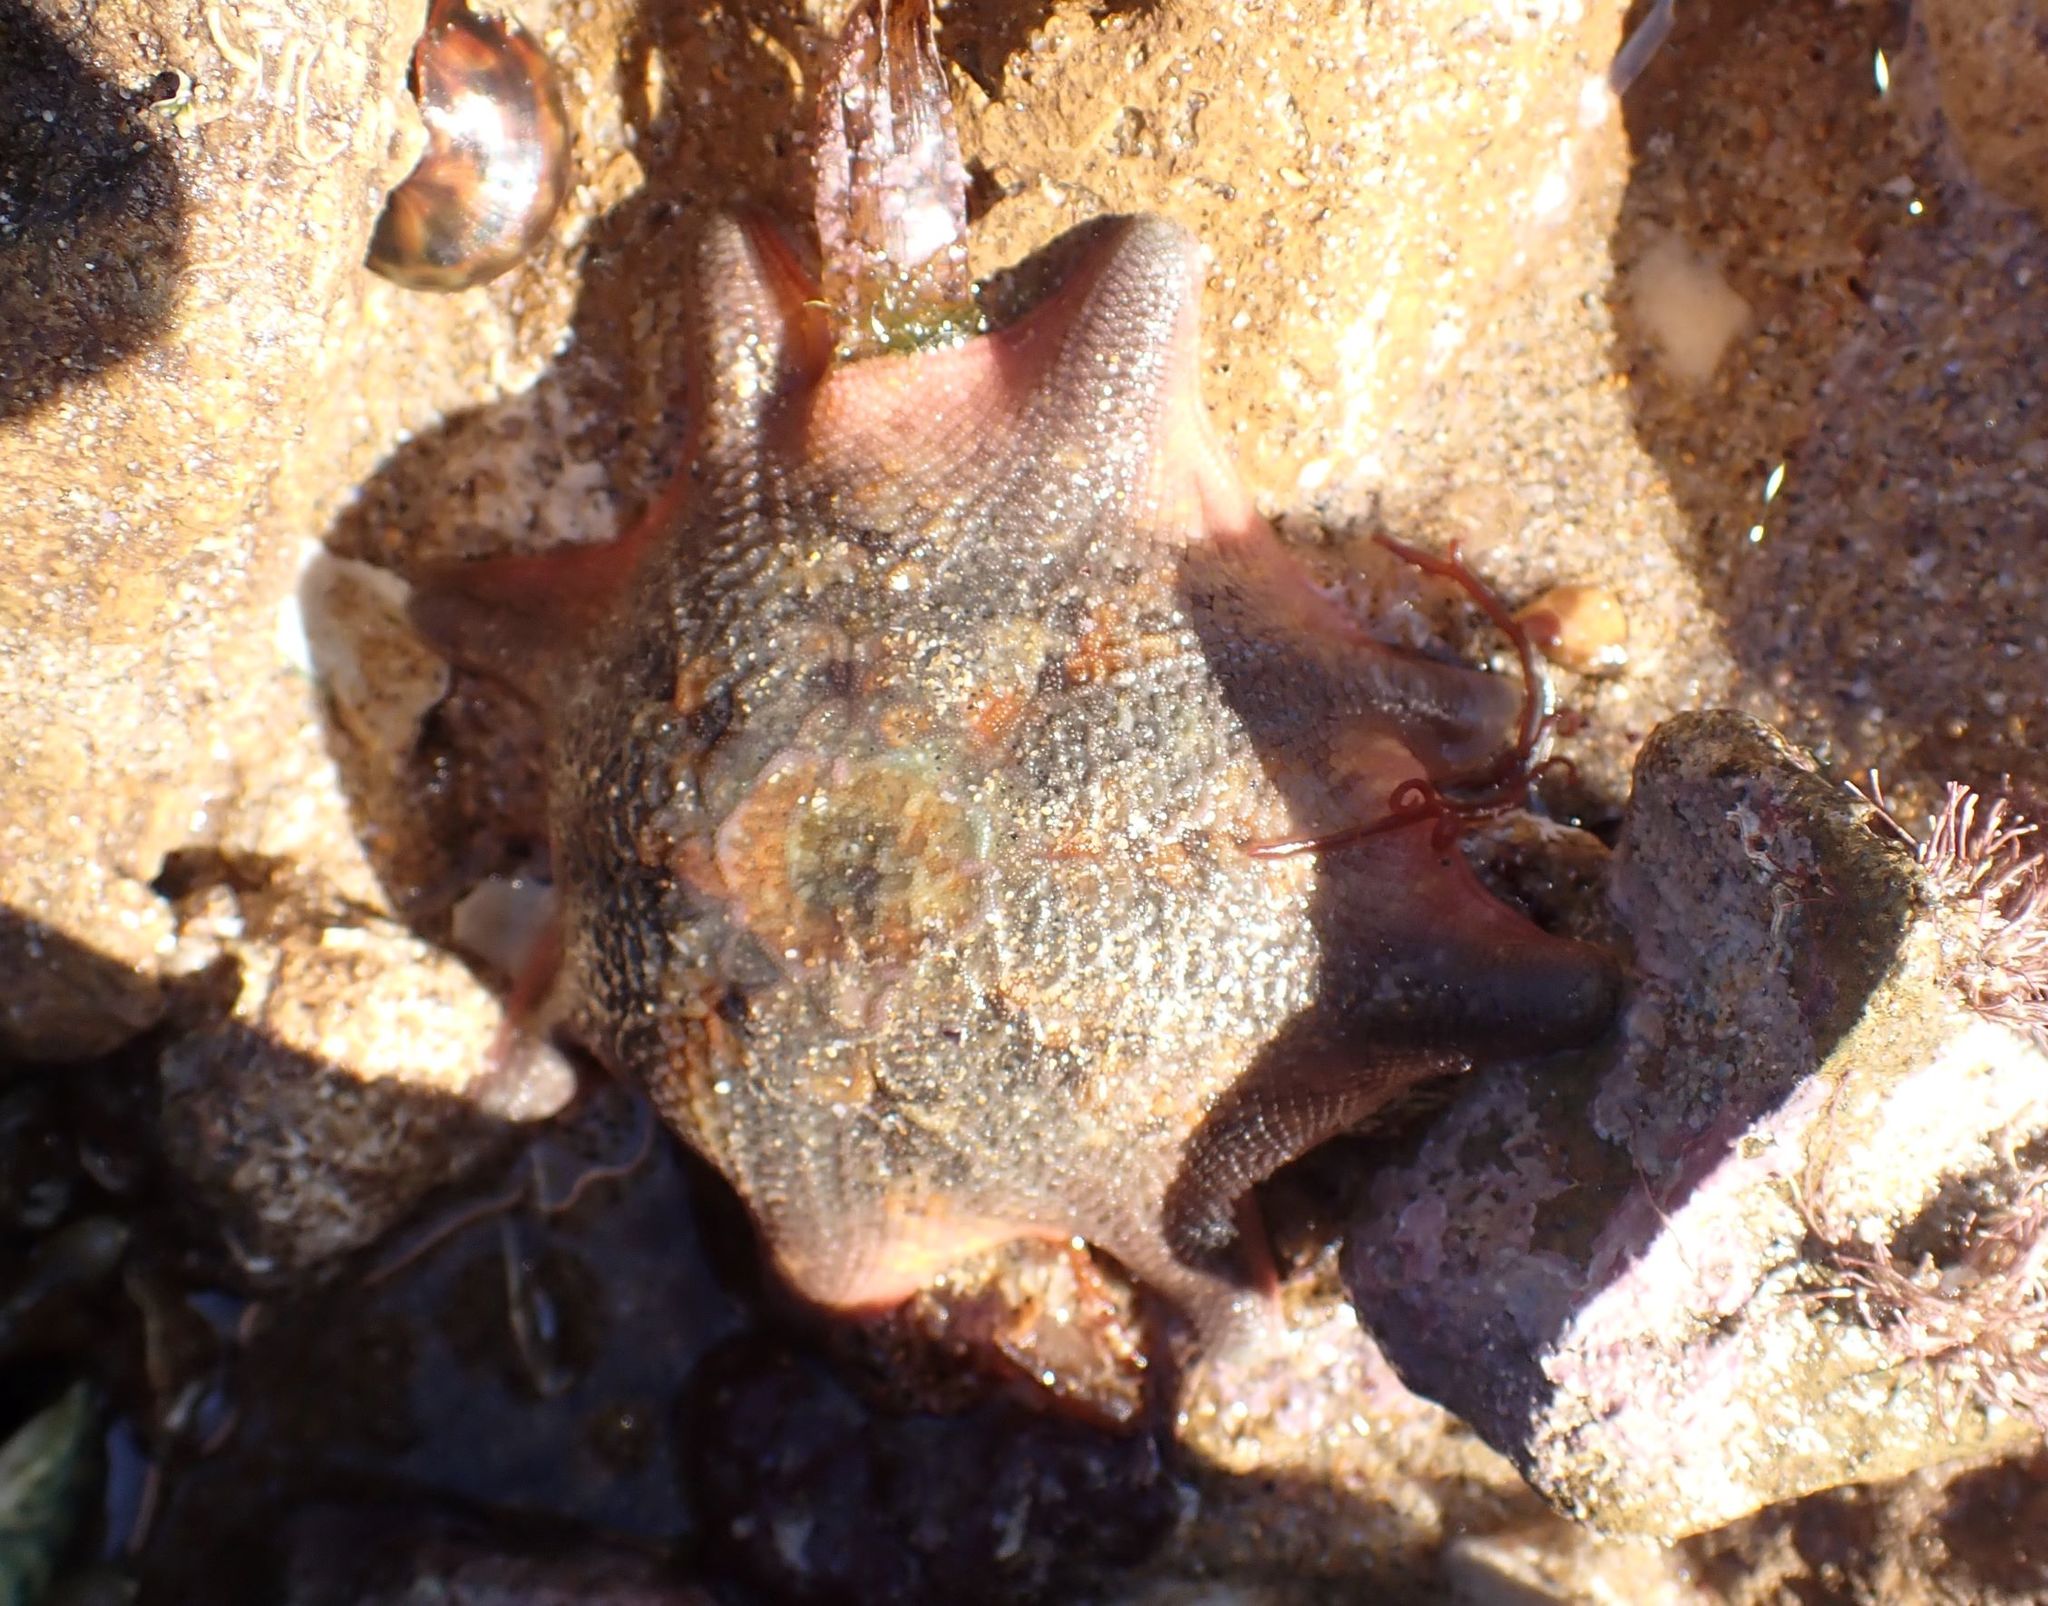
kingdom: Animalia
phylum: Echinodermata
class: Asteroidea
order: Valvatida
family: Asterinidae
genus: Meridiastra
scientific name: Meridiastra calcar
